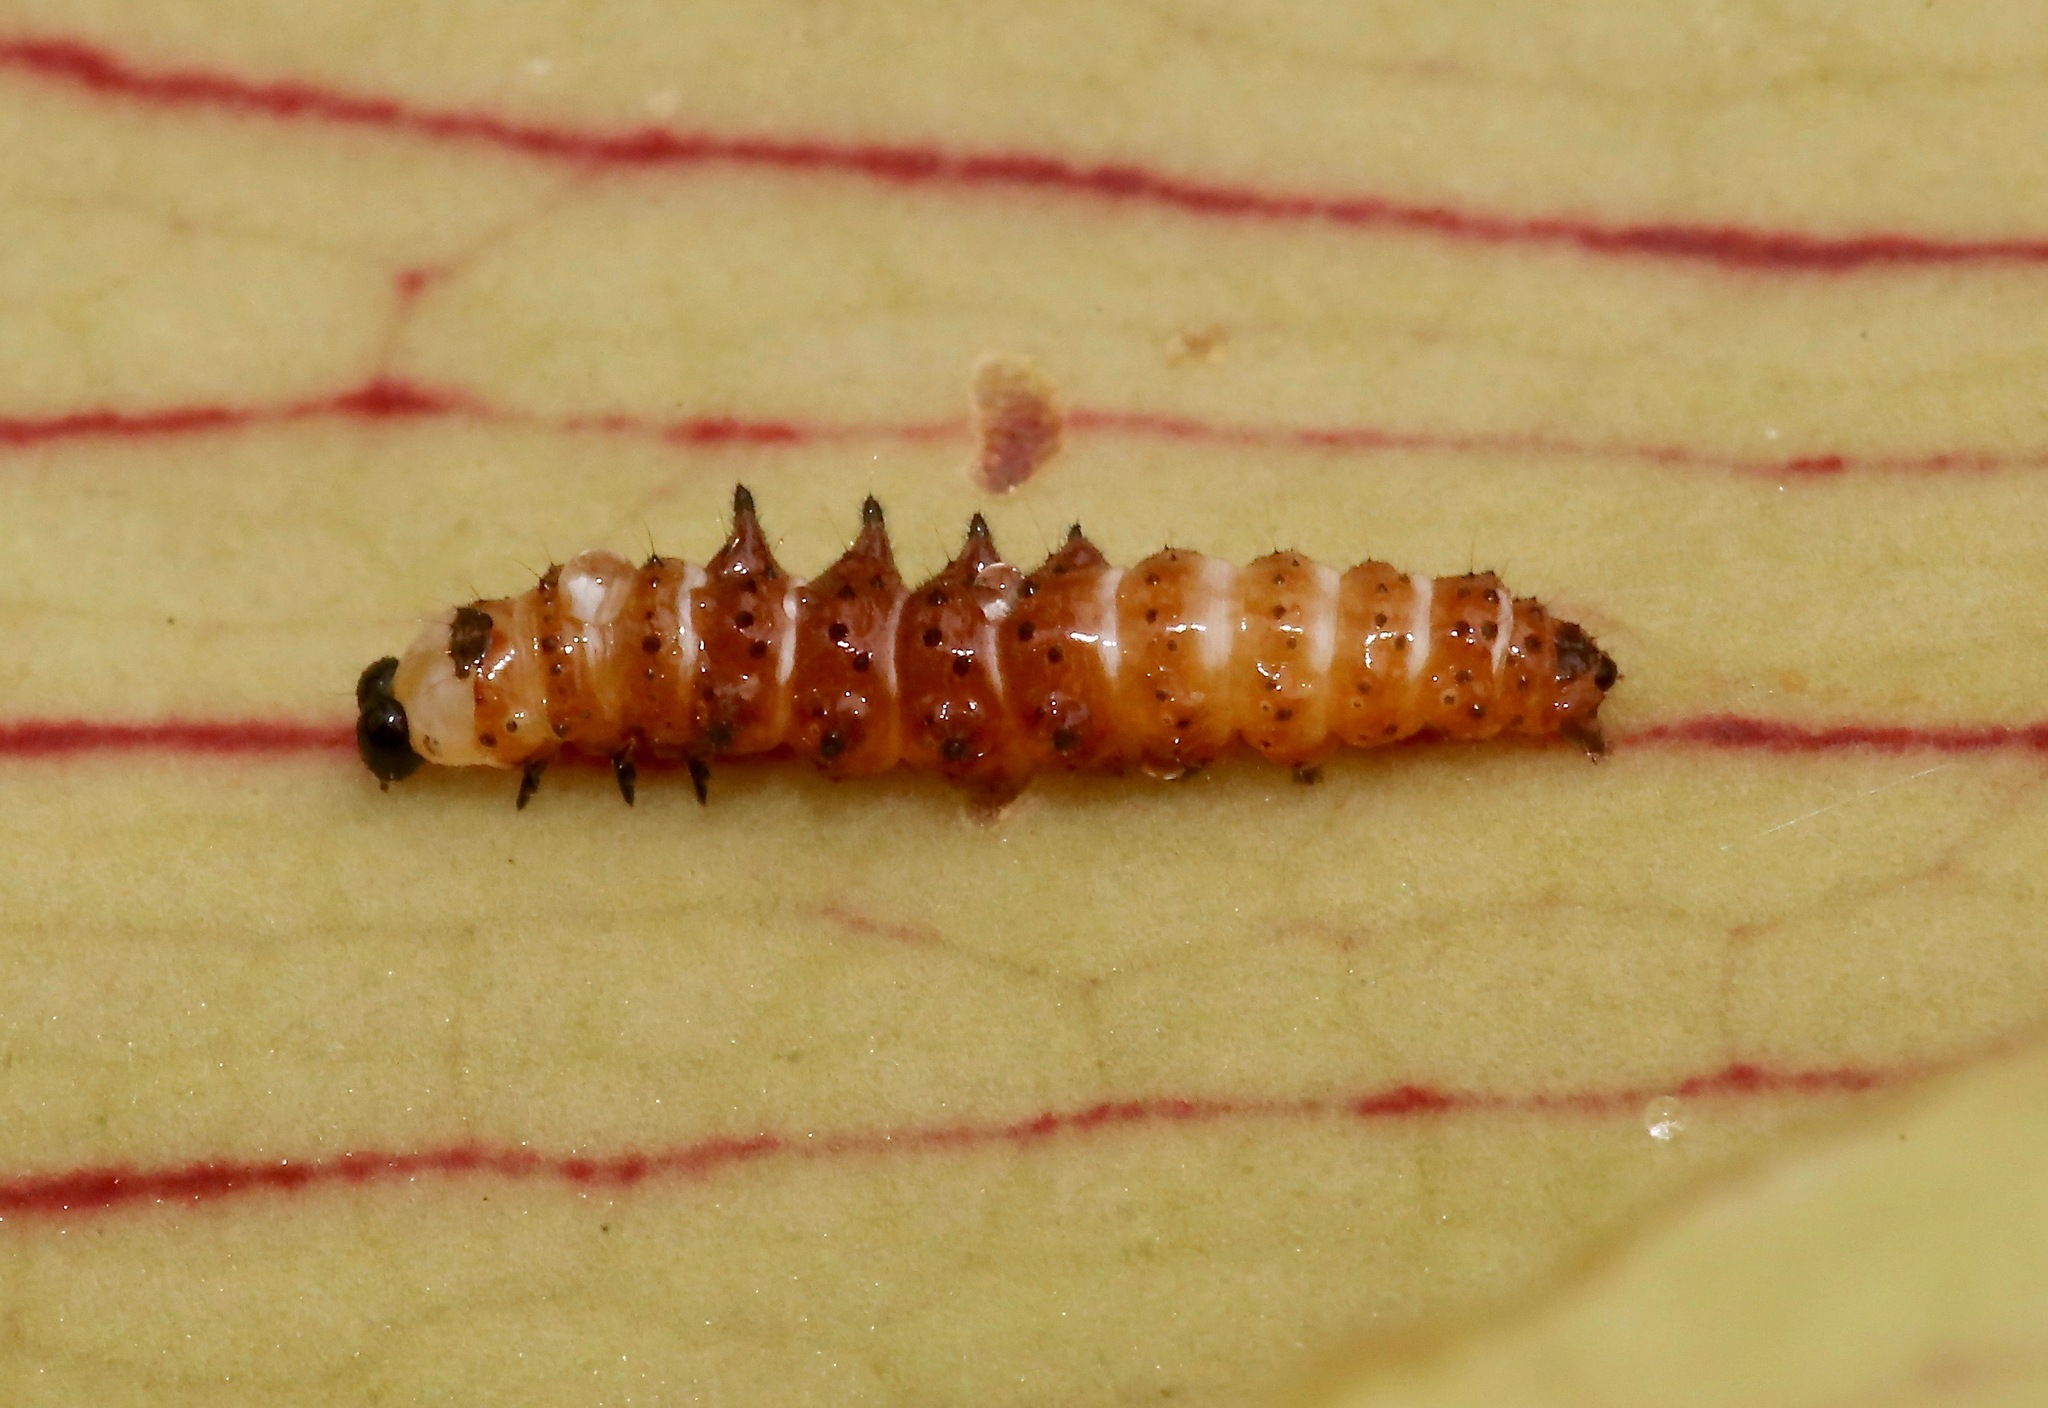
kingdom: Animalia
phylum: Arthropoda
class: Insecta
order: Lepidoptera
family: Noctuidae
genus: Exyra
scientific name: Exyra semicrocea
